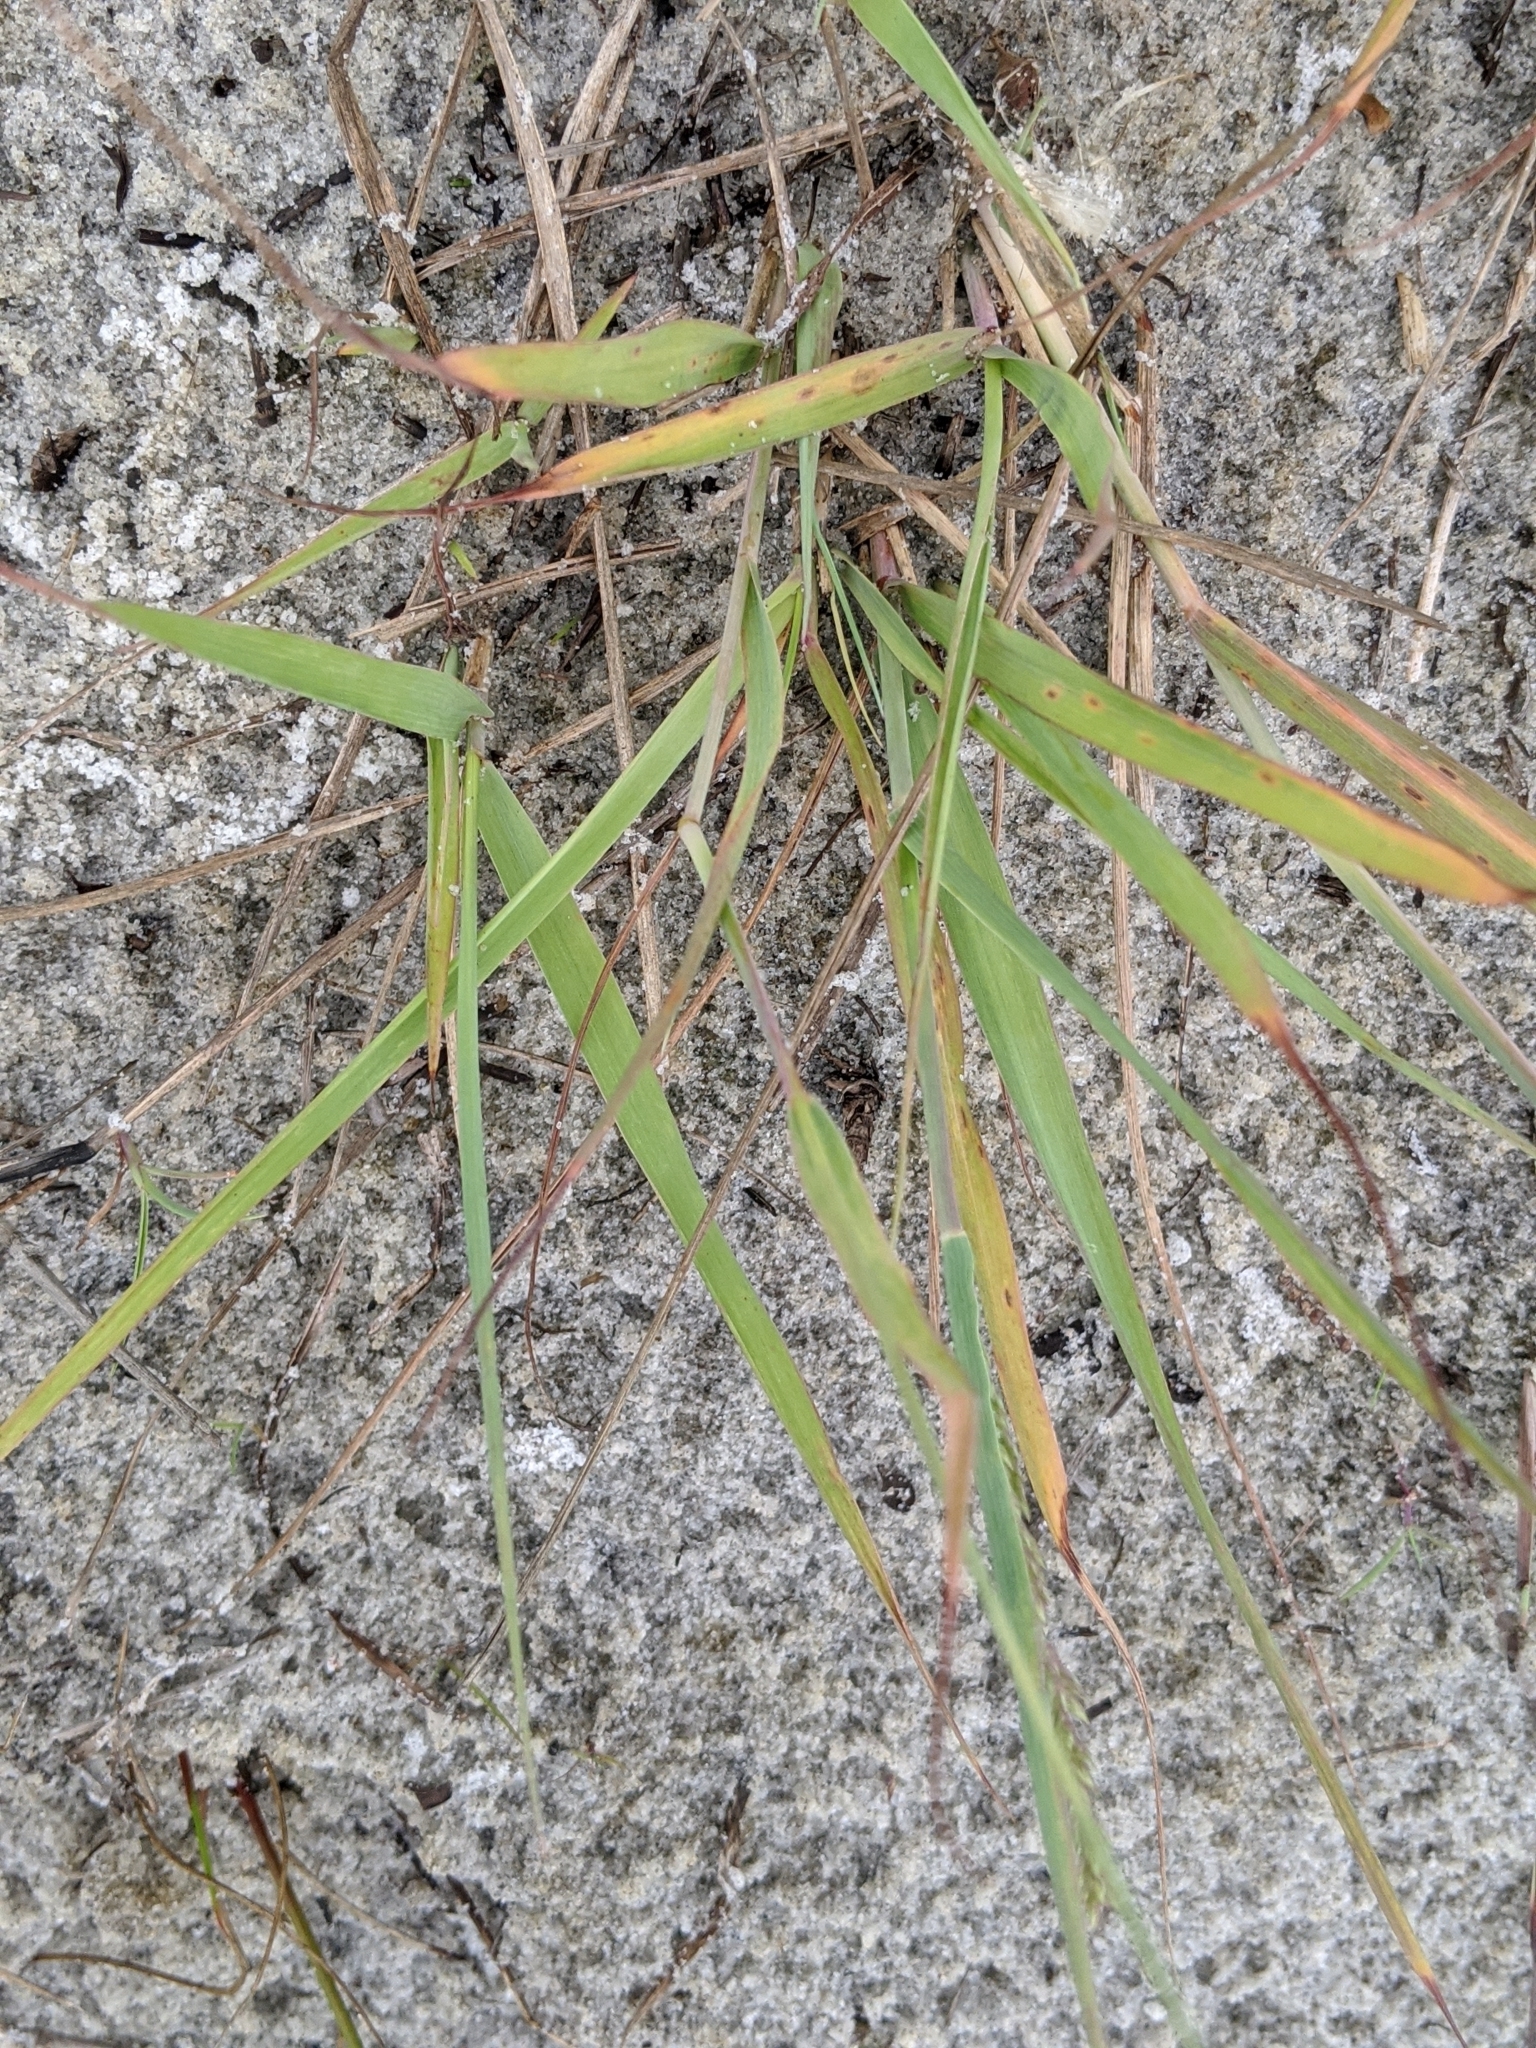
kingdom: Plantae
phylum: Tracheophyta
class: Liliopsida
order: Poales
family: Poaceae
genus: Eragrostis
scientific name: Eragrostis secundiflora
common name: Red love grass
